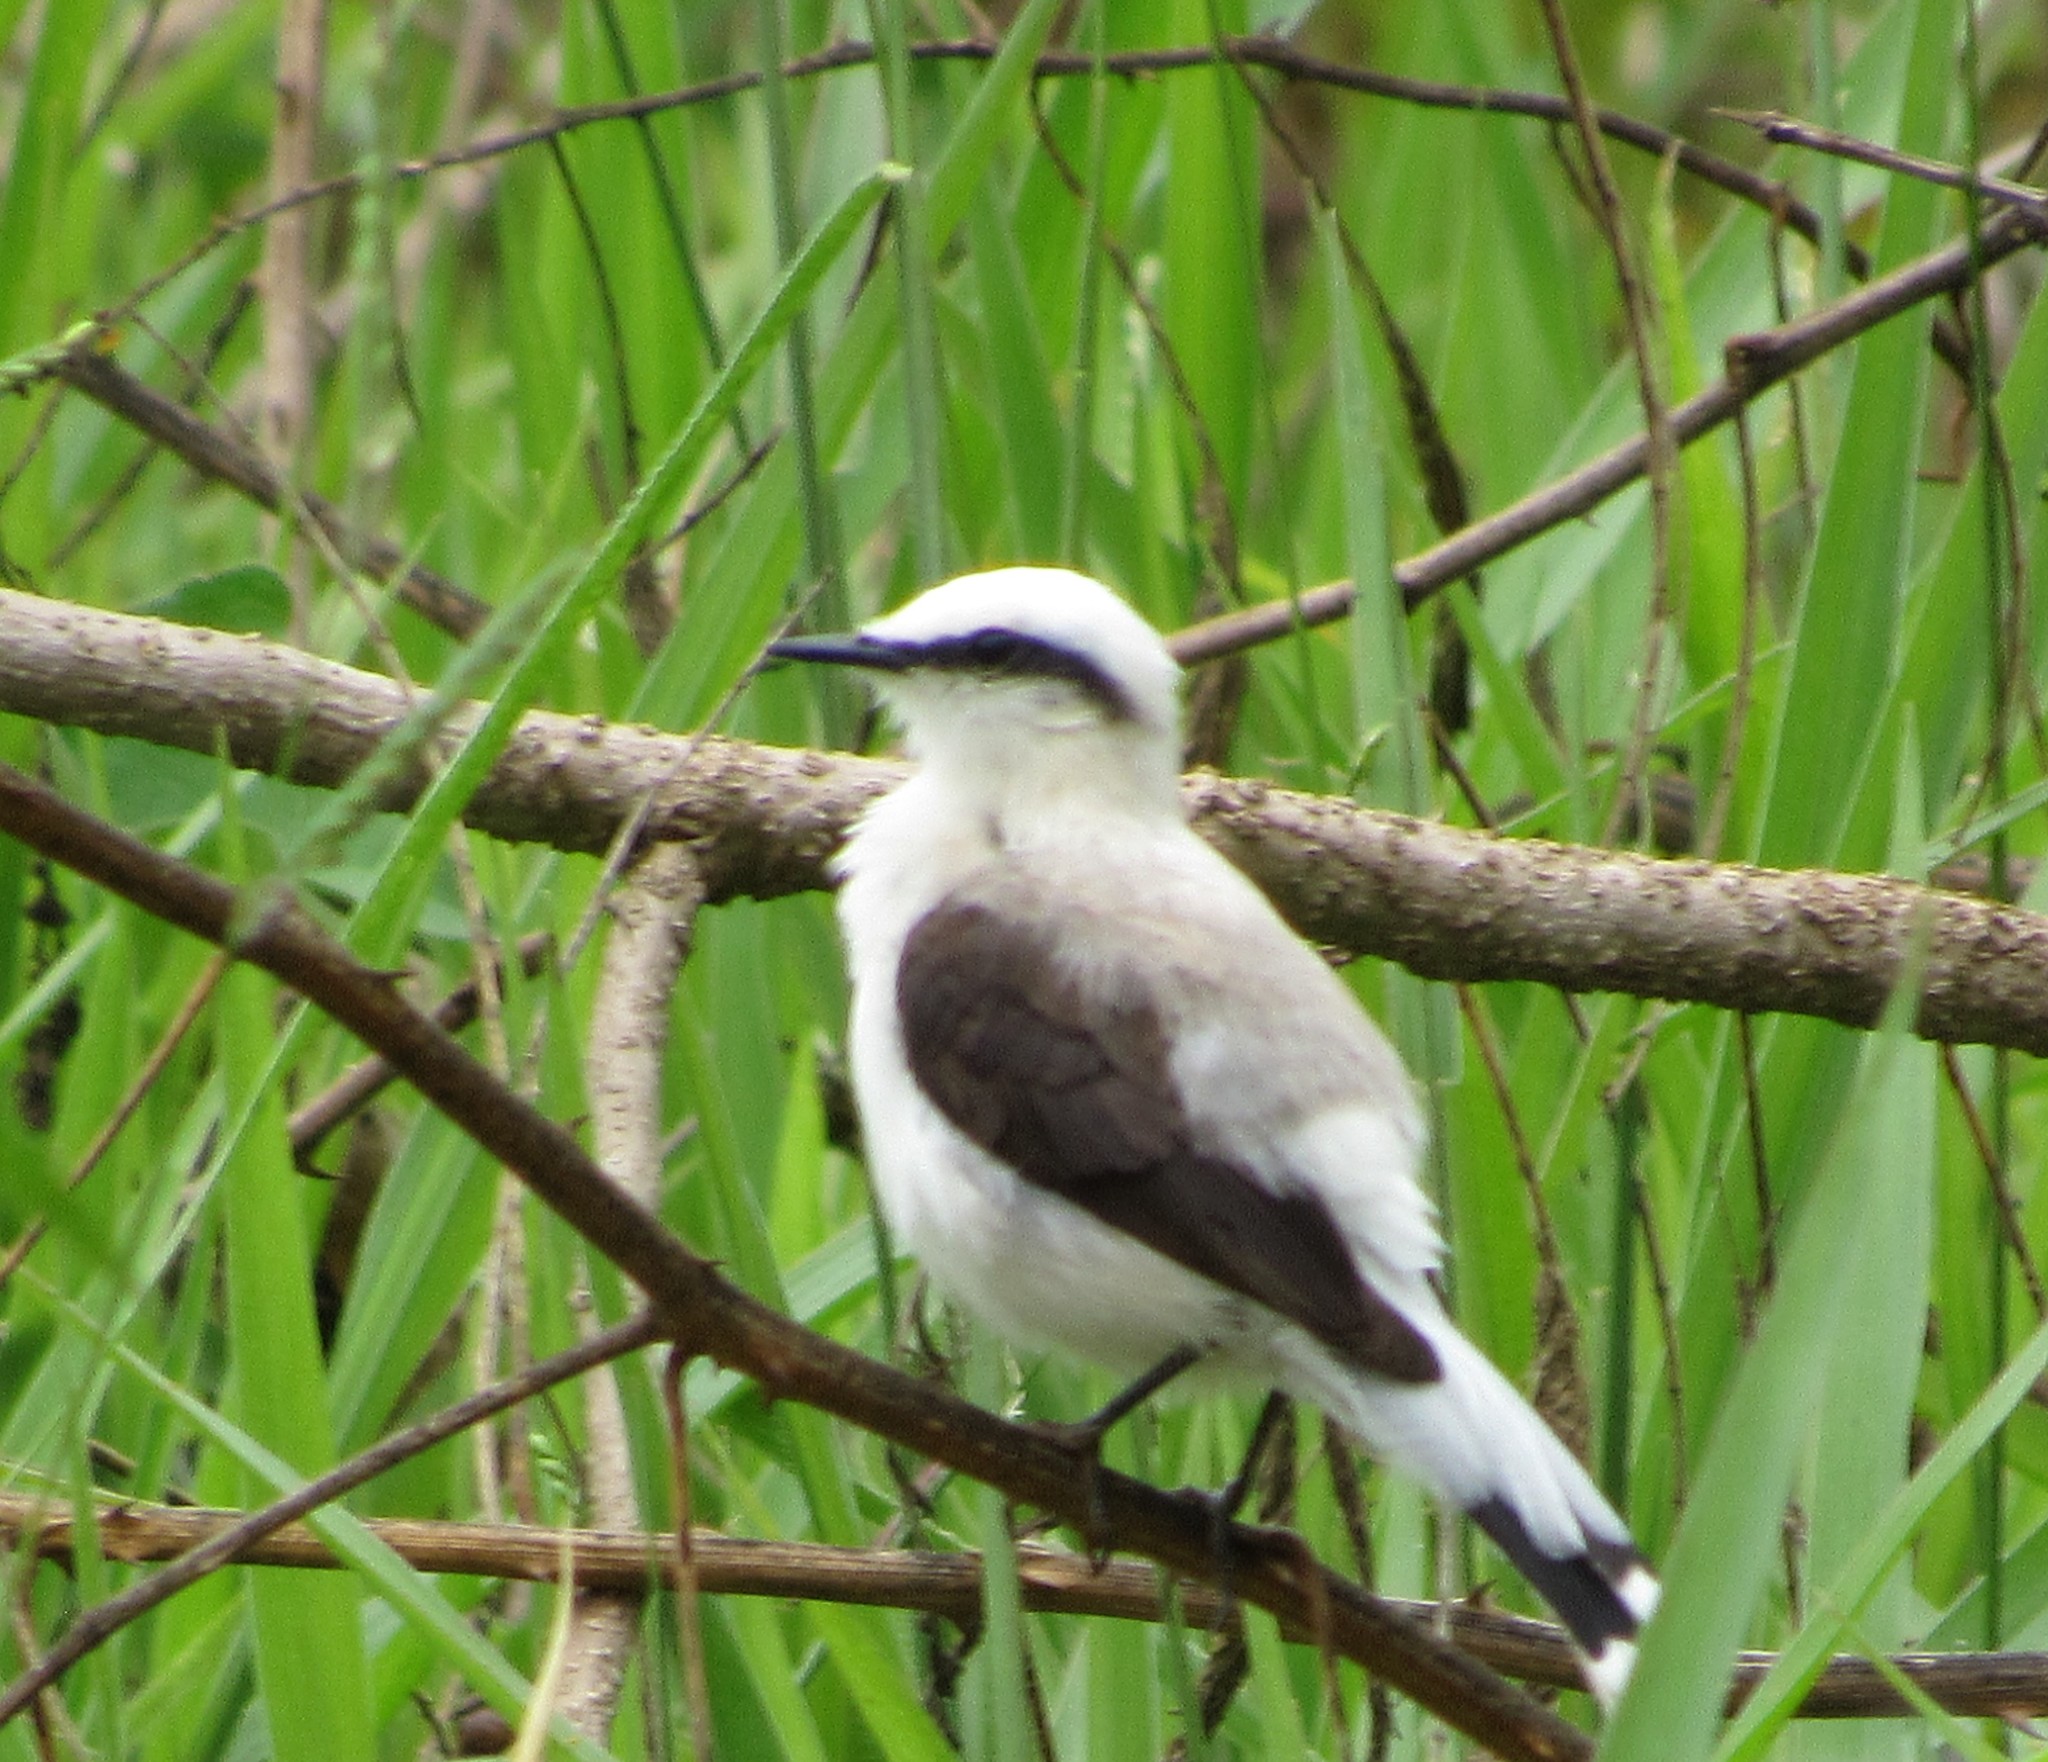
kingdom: Animalia
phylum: Chordata
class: Aves
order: Passeriformes
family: Tyrannidae
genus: Fluvicola
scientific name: Fluvicola nengeta
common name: Masked water tyrant
